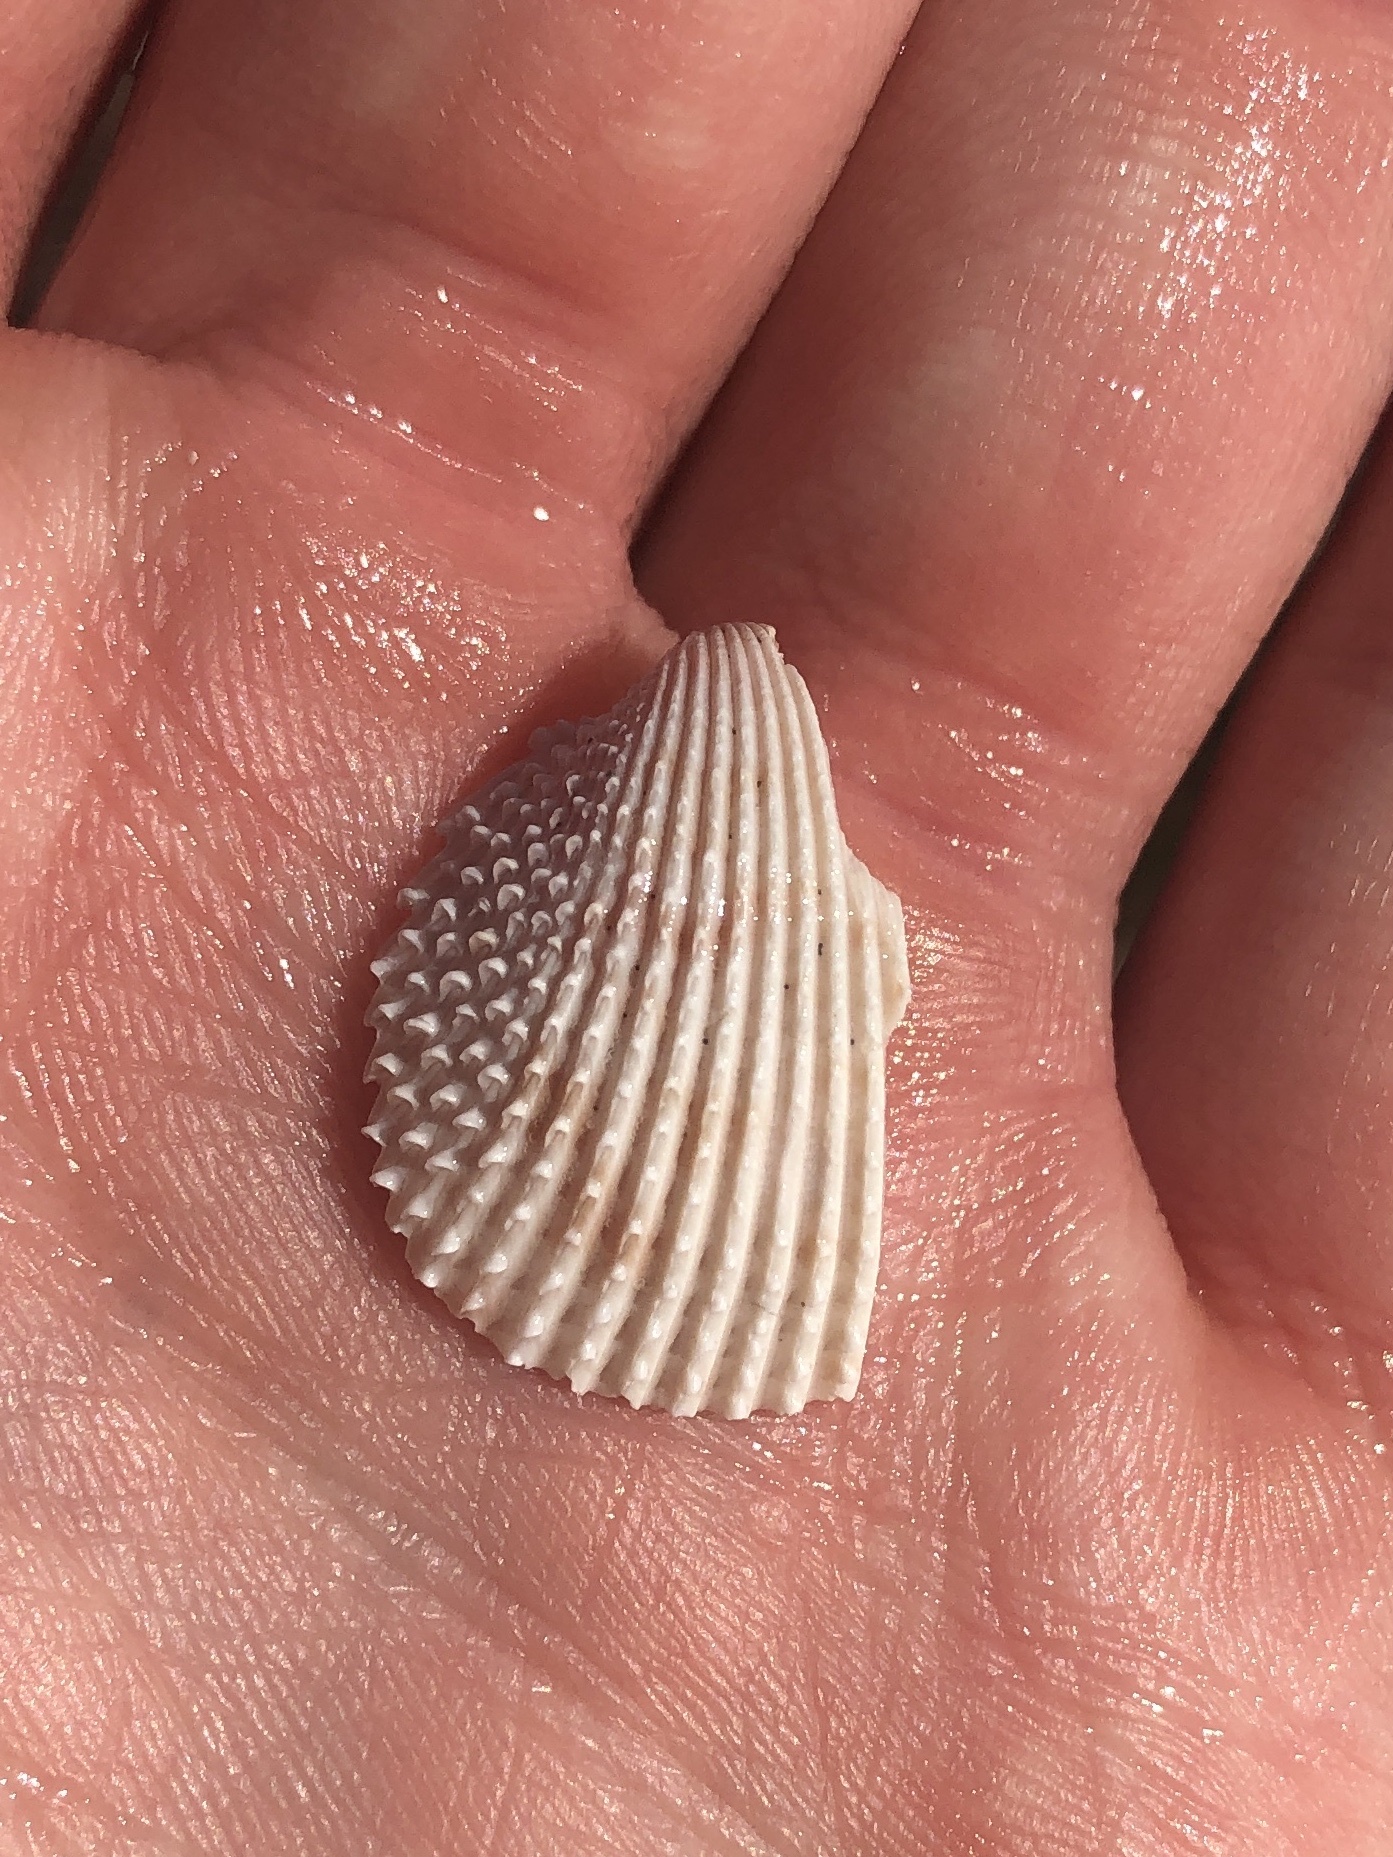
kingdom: Animalia
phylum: Mollusca
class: Bivalvia
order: Cardiida
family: Cardiidae
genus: Trachycardium
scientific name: Trachycardium egmontianum
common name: Florida pricklycockle
